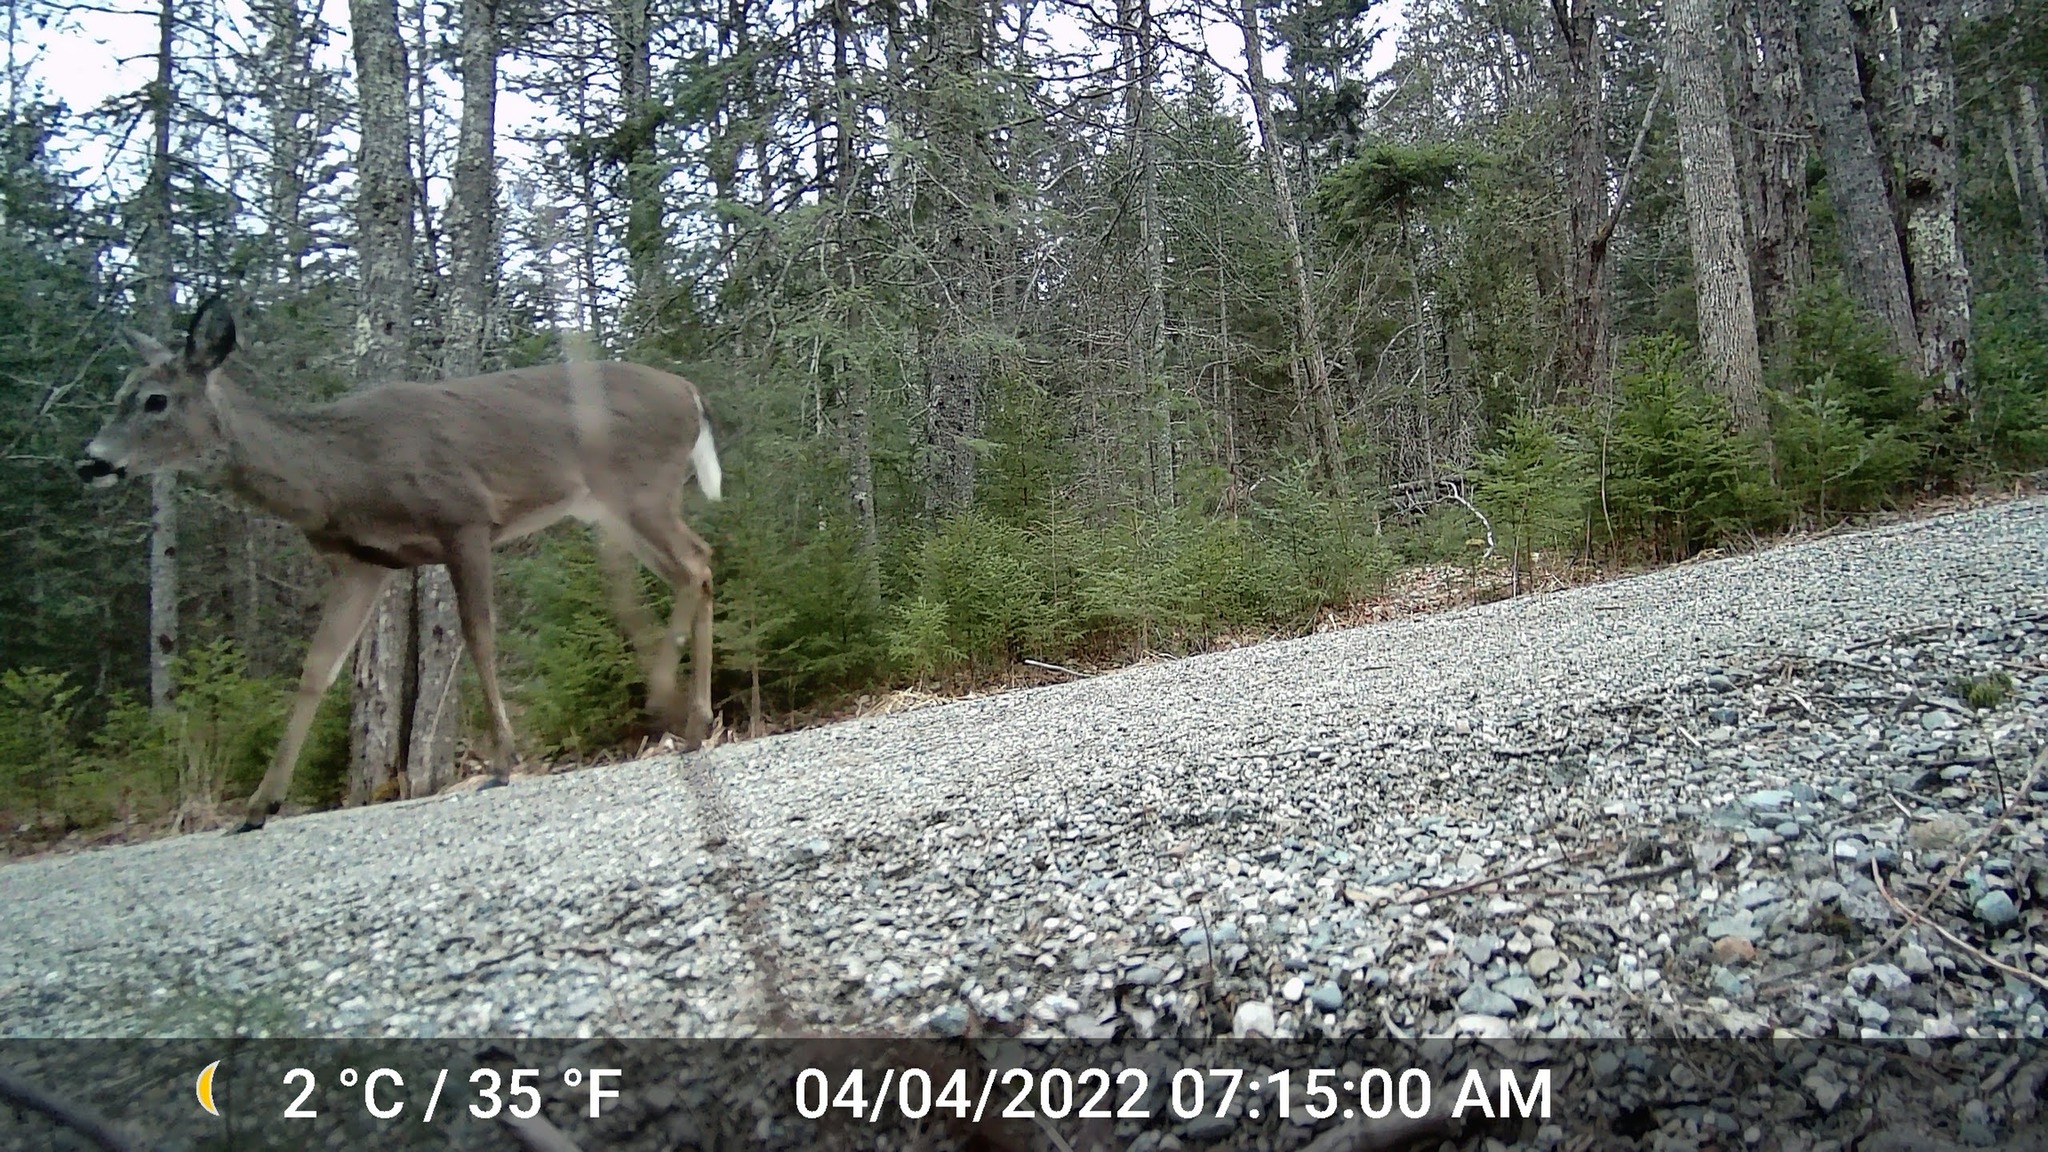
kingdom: Animalia
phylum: Chordata
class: Mammalia
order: Artiodactyla
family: Cervidae
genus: Odocoileus
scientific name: Odocoileus virginianus
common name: White-tailed deer
